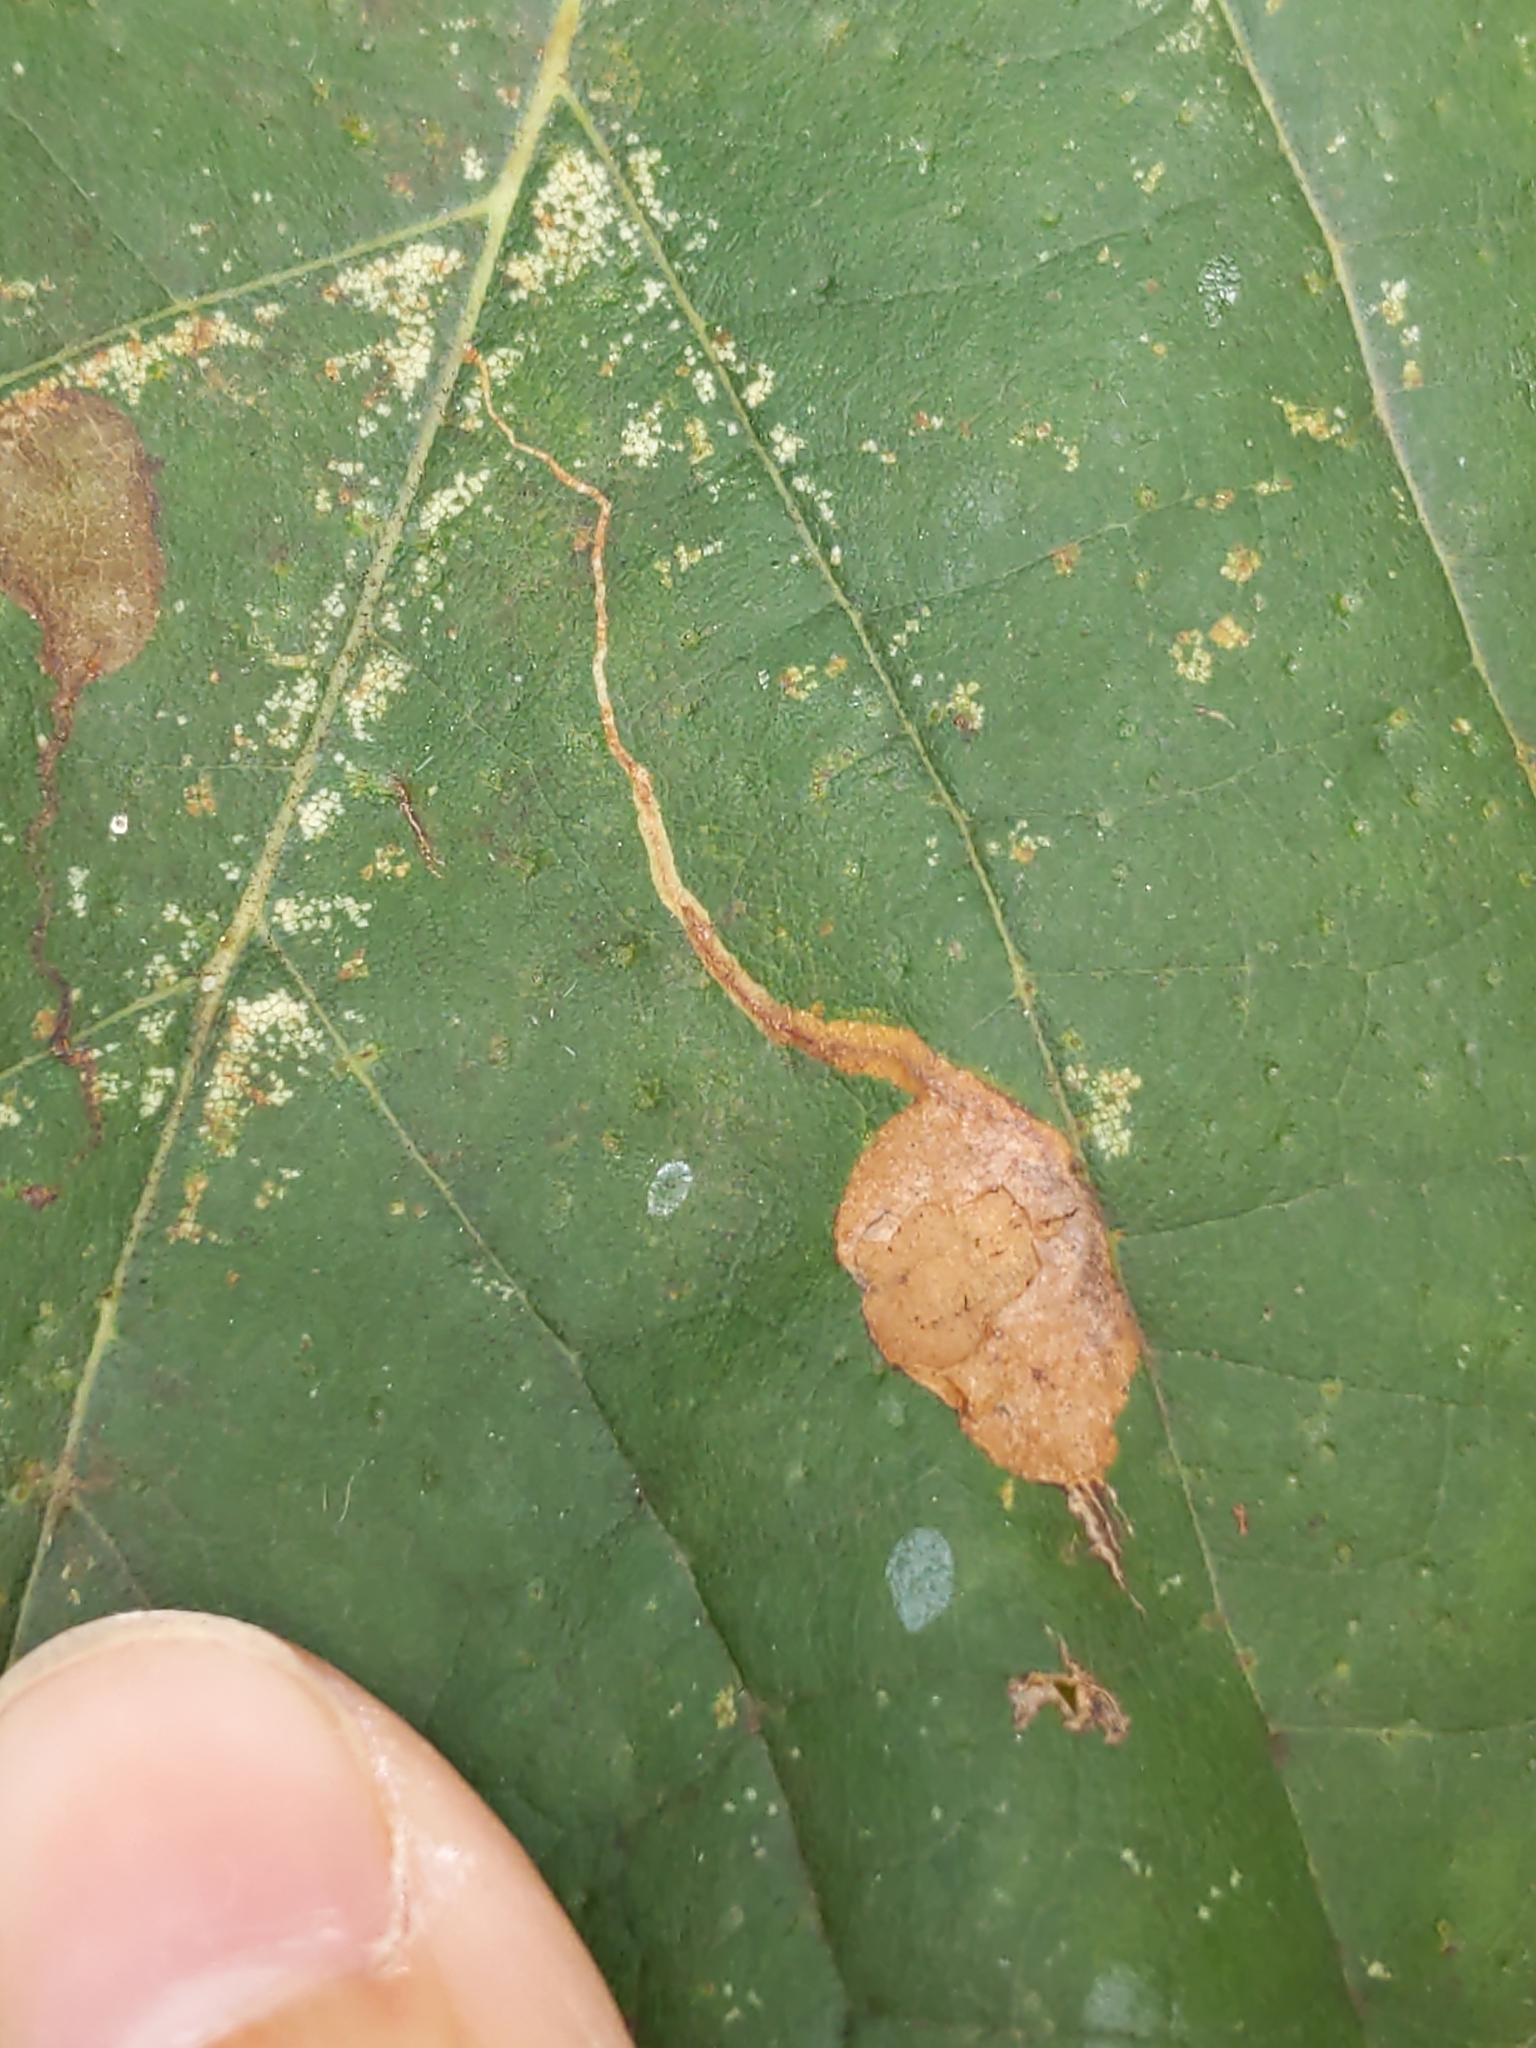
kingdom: Animalia
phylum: Arthropoda
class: Insecta
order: Lepidoptera
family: Nepticulidae
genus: Ectoedemia
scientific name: Ectoedemia clemensella
